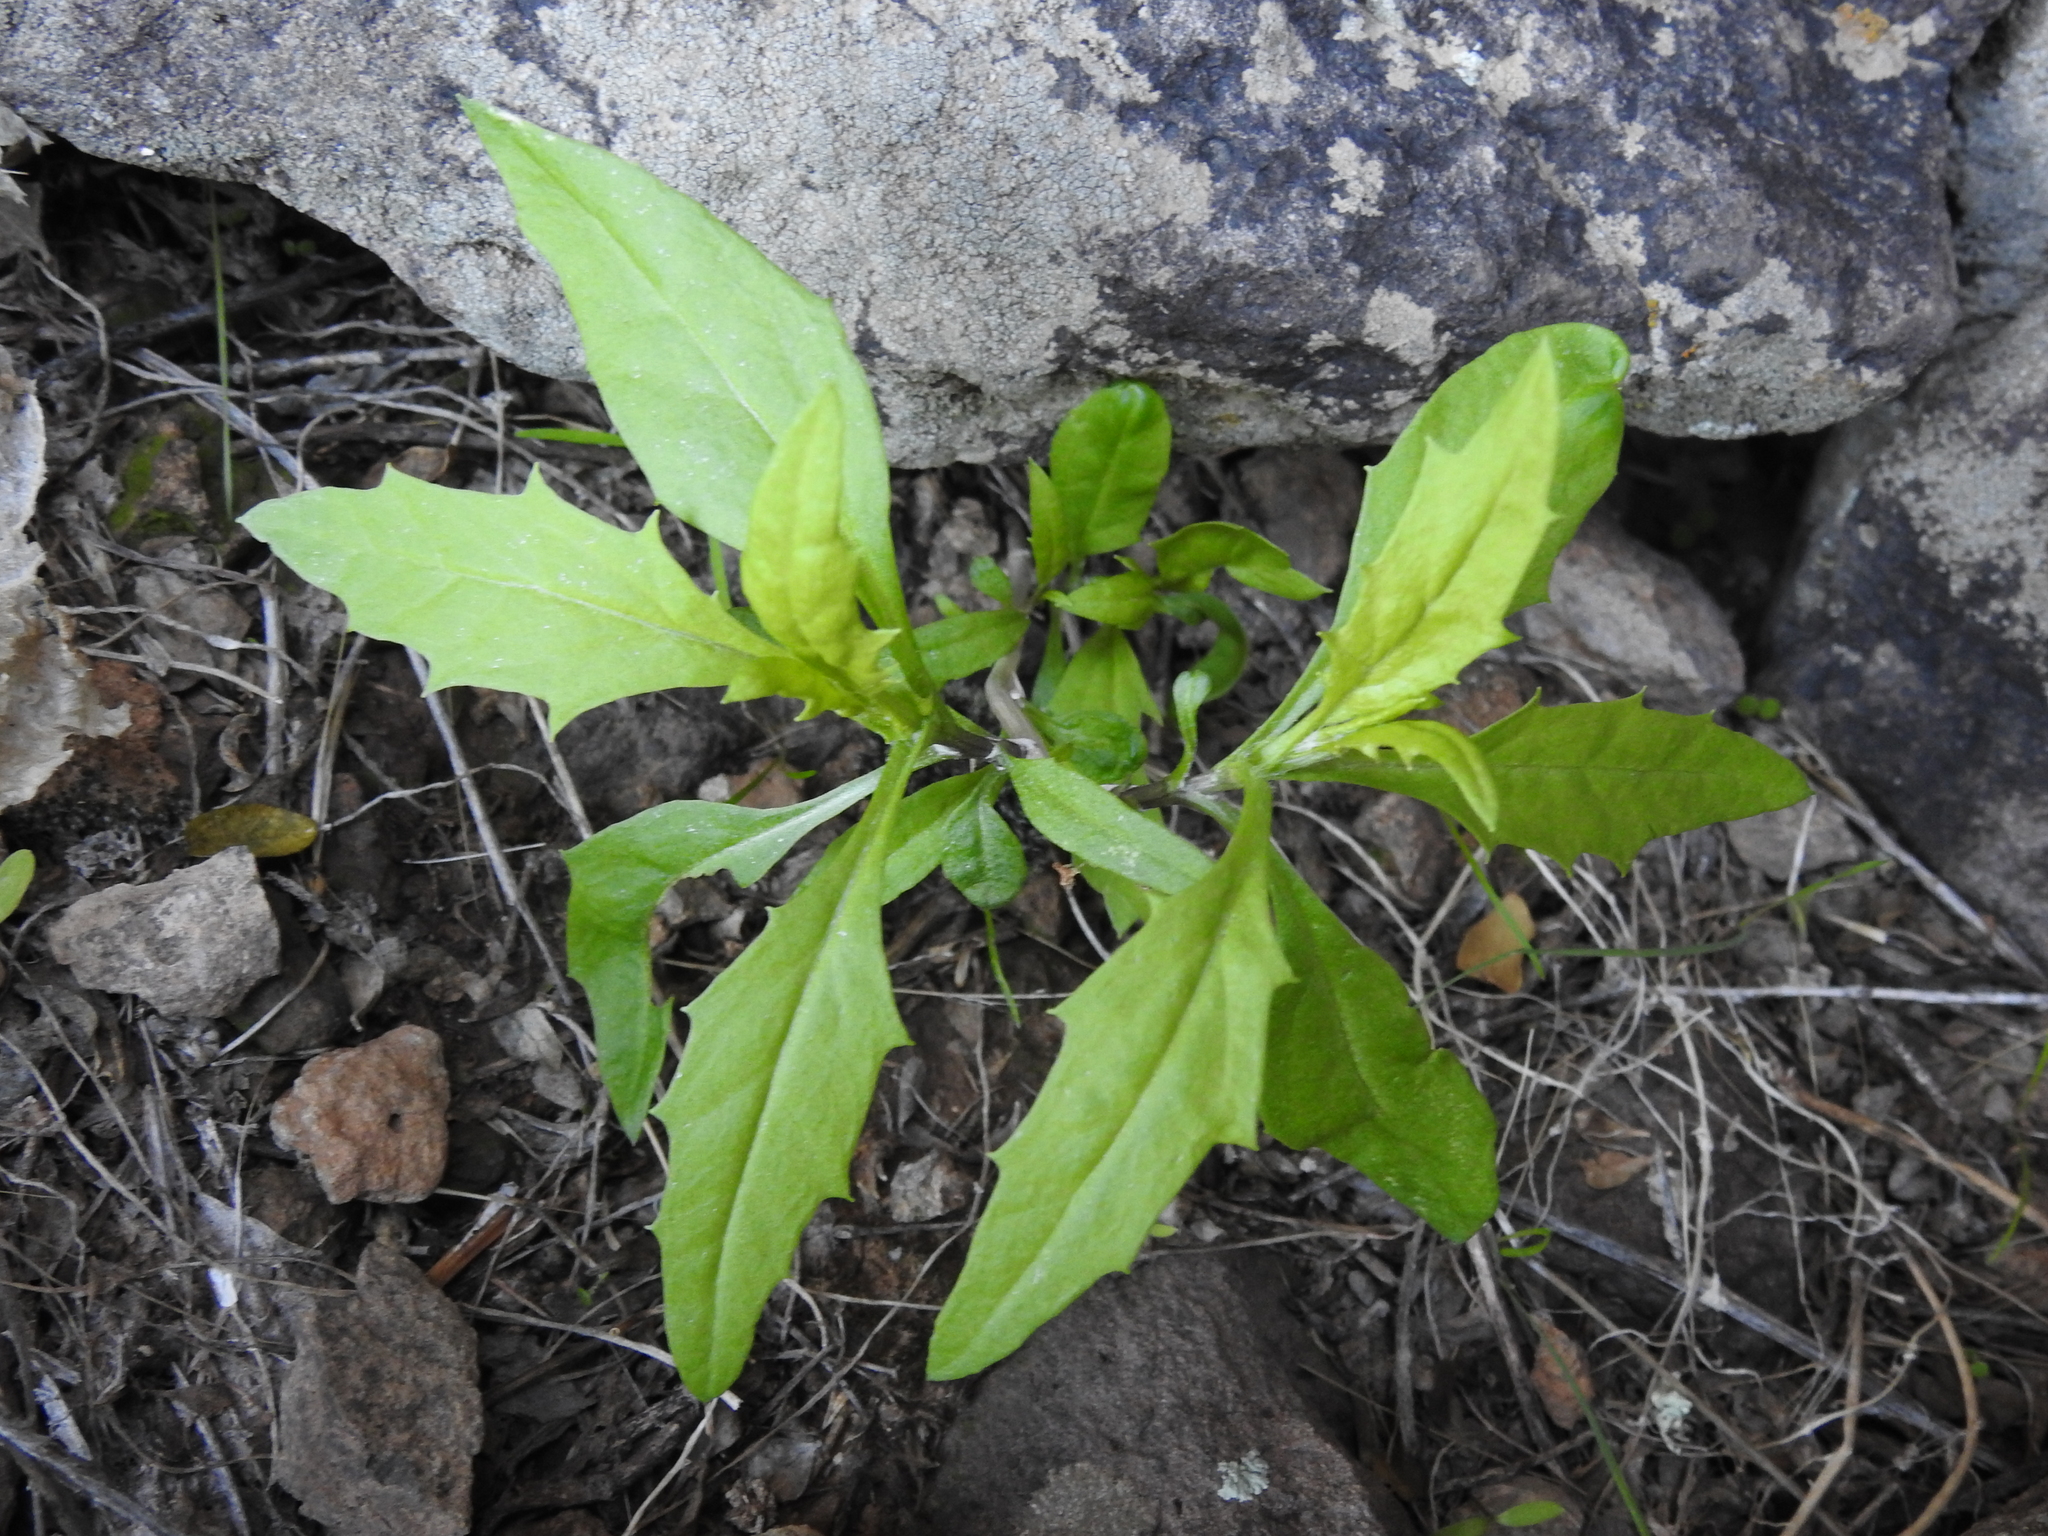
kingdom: Plantae
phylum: Tracheophyta
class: Magnoliopsida
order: Asterales
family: Asteraceae
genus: Senecio
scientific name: Senecio lemmonii
